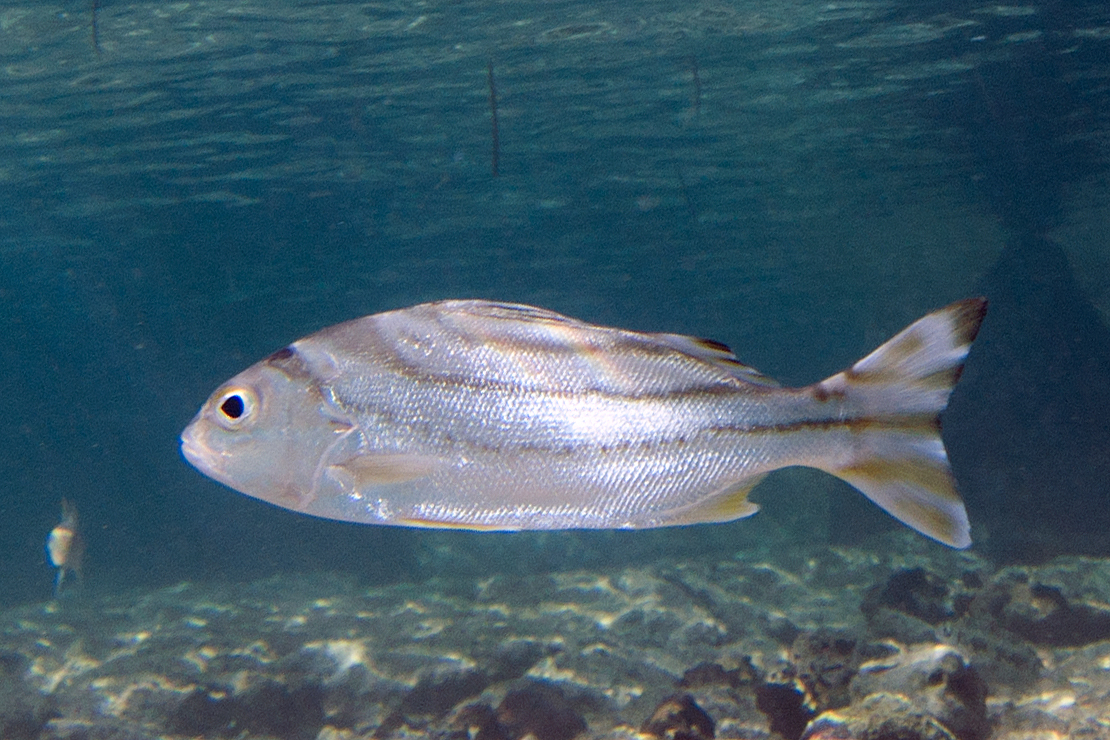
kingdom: Animalia
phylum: Chordata
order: Perciformes
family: Terapontidae
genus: Terapon
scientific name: Terapon jarbua
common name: Jarbua terapon
